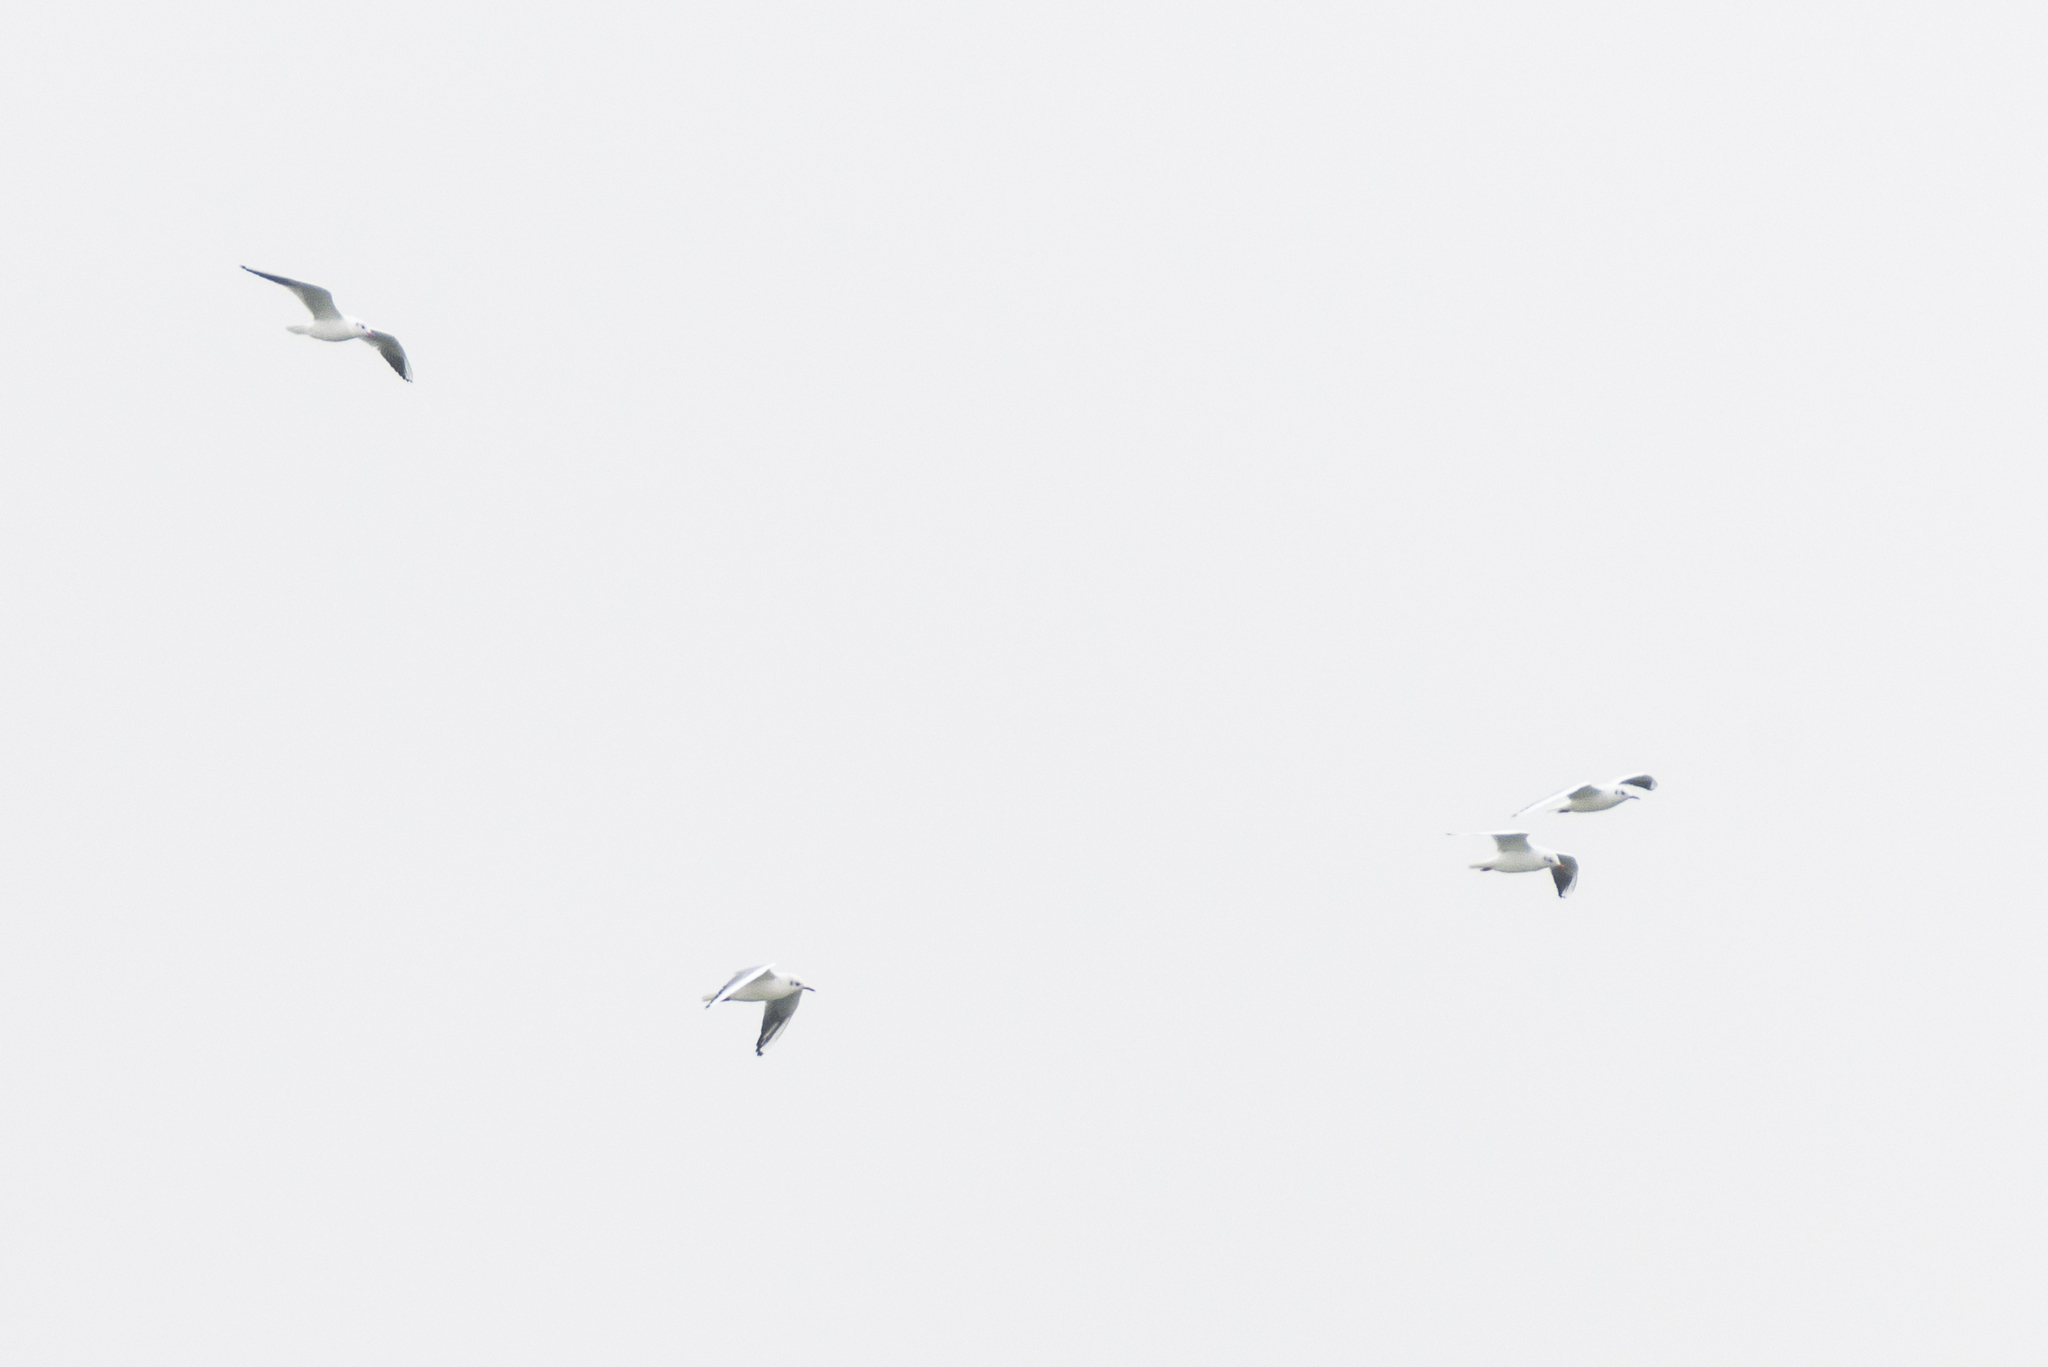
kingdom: Animalia
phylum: Chordata
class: Aves
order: Charadriiformes
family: Laridae
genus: Chroicocephalus
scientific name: Chroicocephalus ridibundus
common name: Black-headed gull
